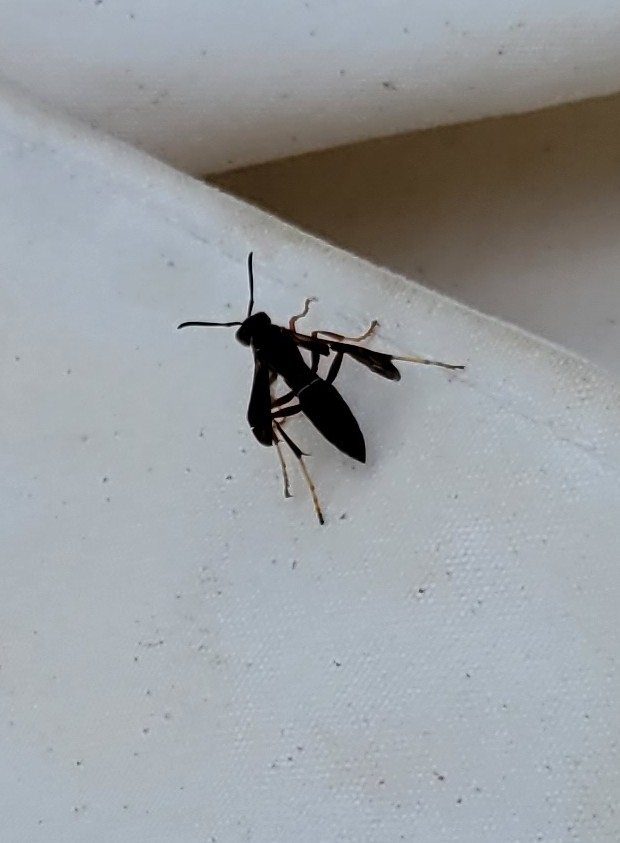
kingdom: Animalia
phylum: Arthropoda
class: Insecta
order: Hymenoptera
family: Eumenidae
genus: Polistes
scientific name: Polistes metricus
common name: Metric paper wasp
